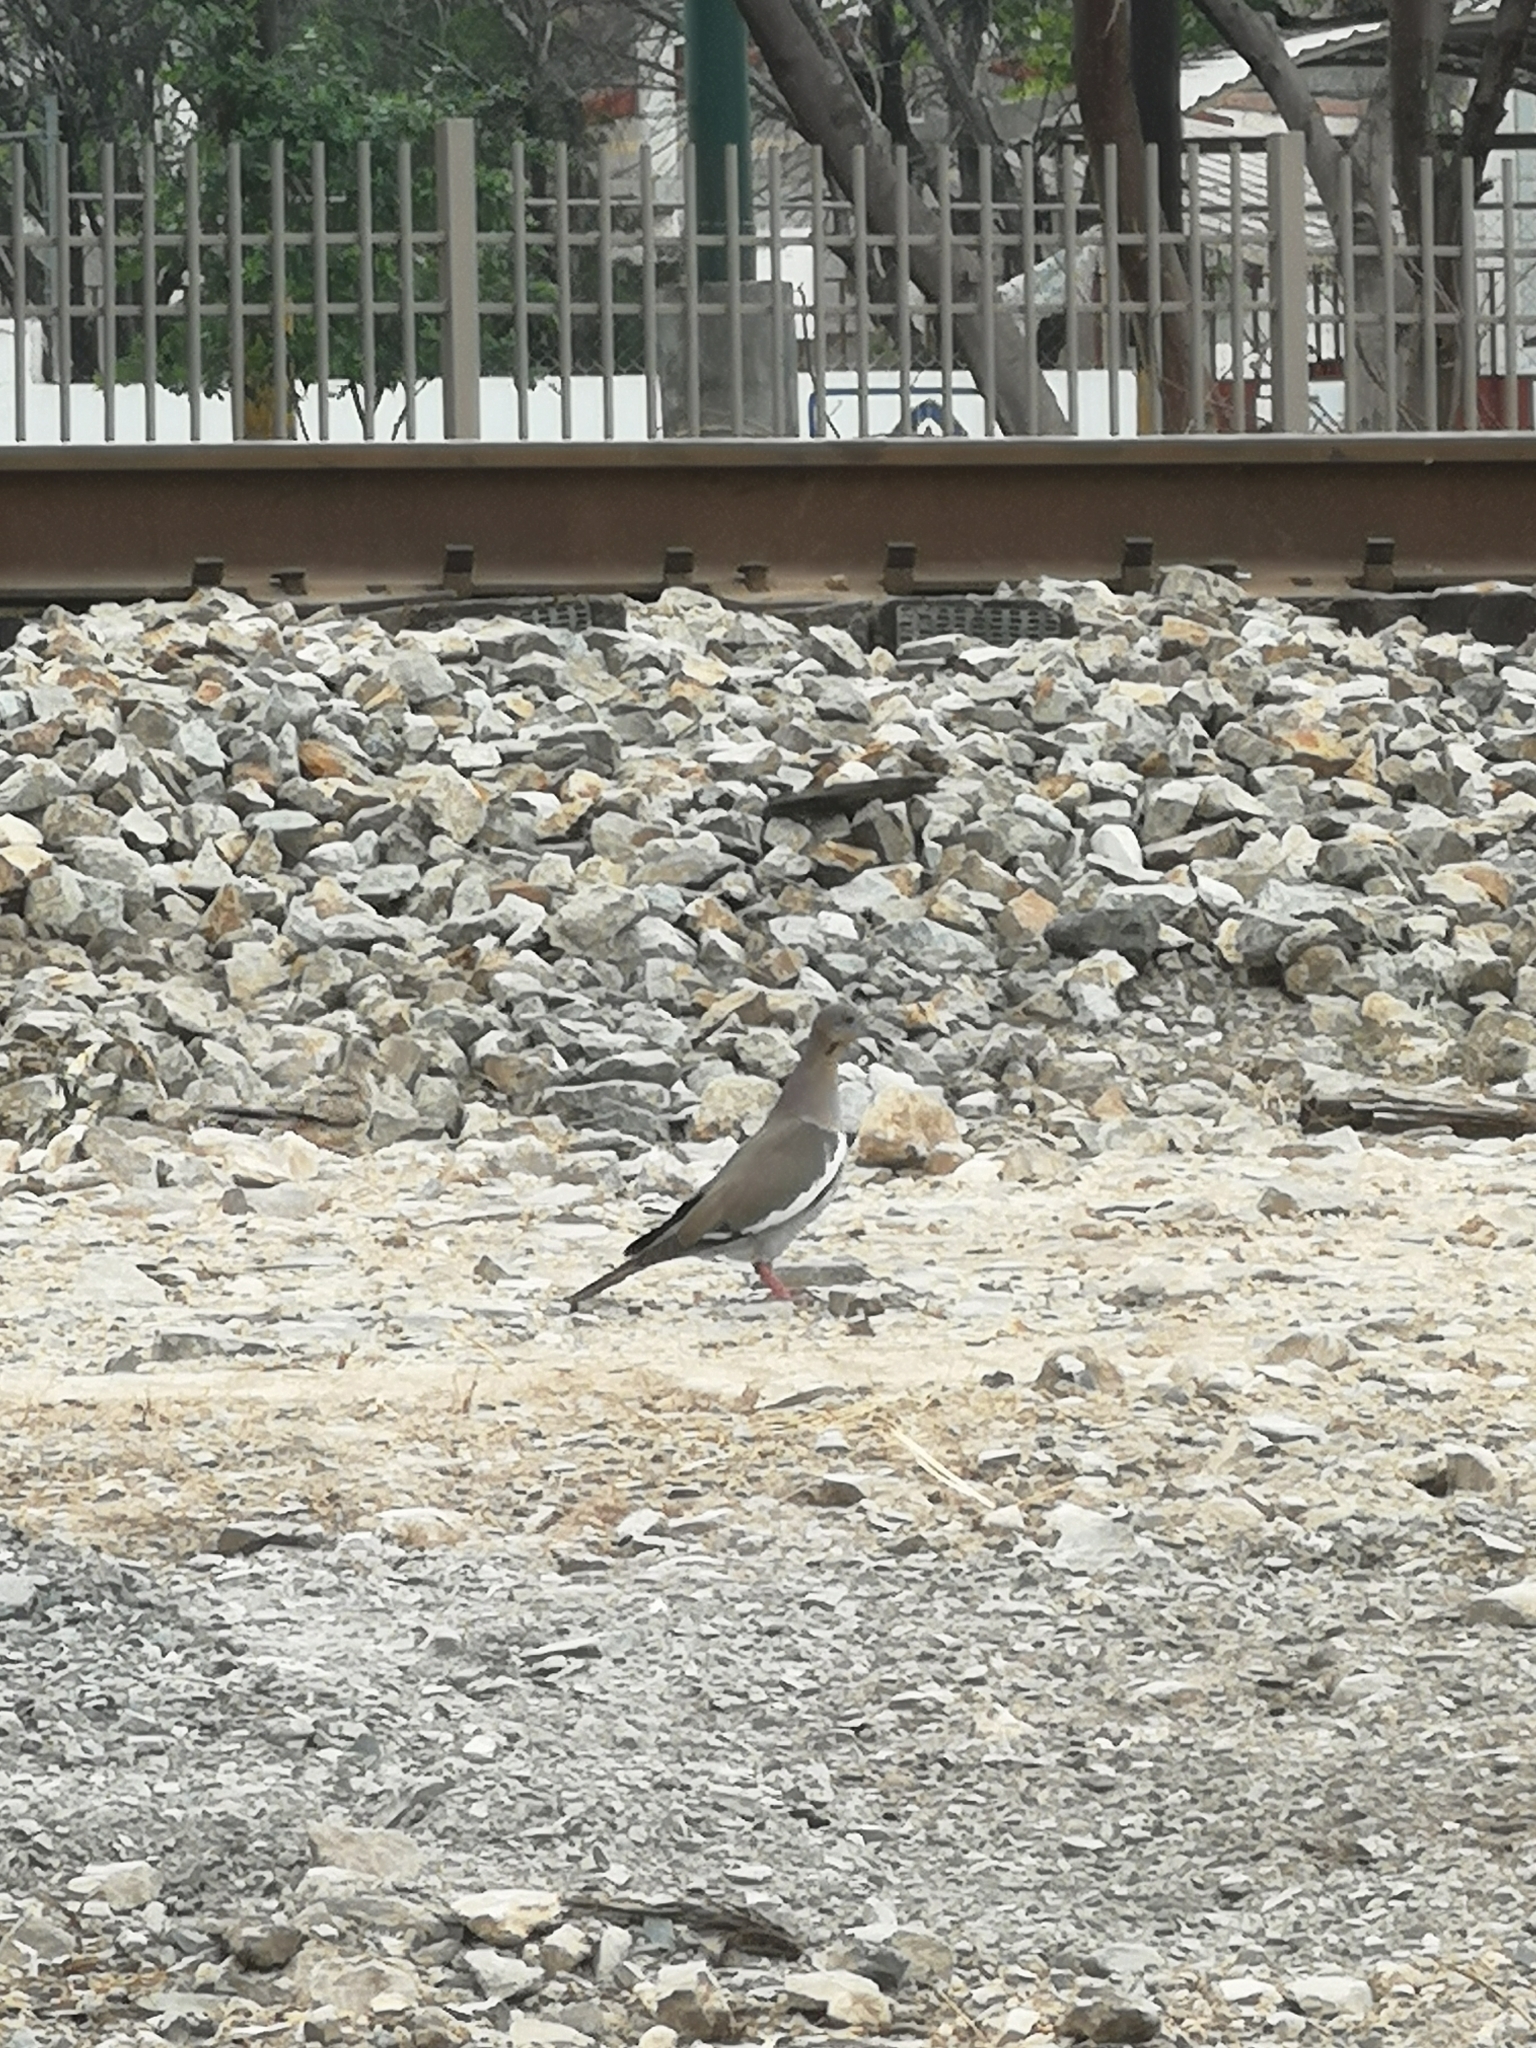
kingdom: Animalia
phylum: Chordata
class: Aves
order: Columbiformes
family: Columbidae
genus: Zenaida
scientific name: Zenaida asiatica
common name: White-winged dove
